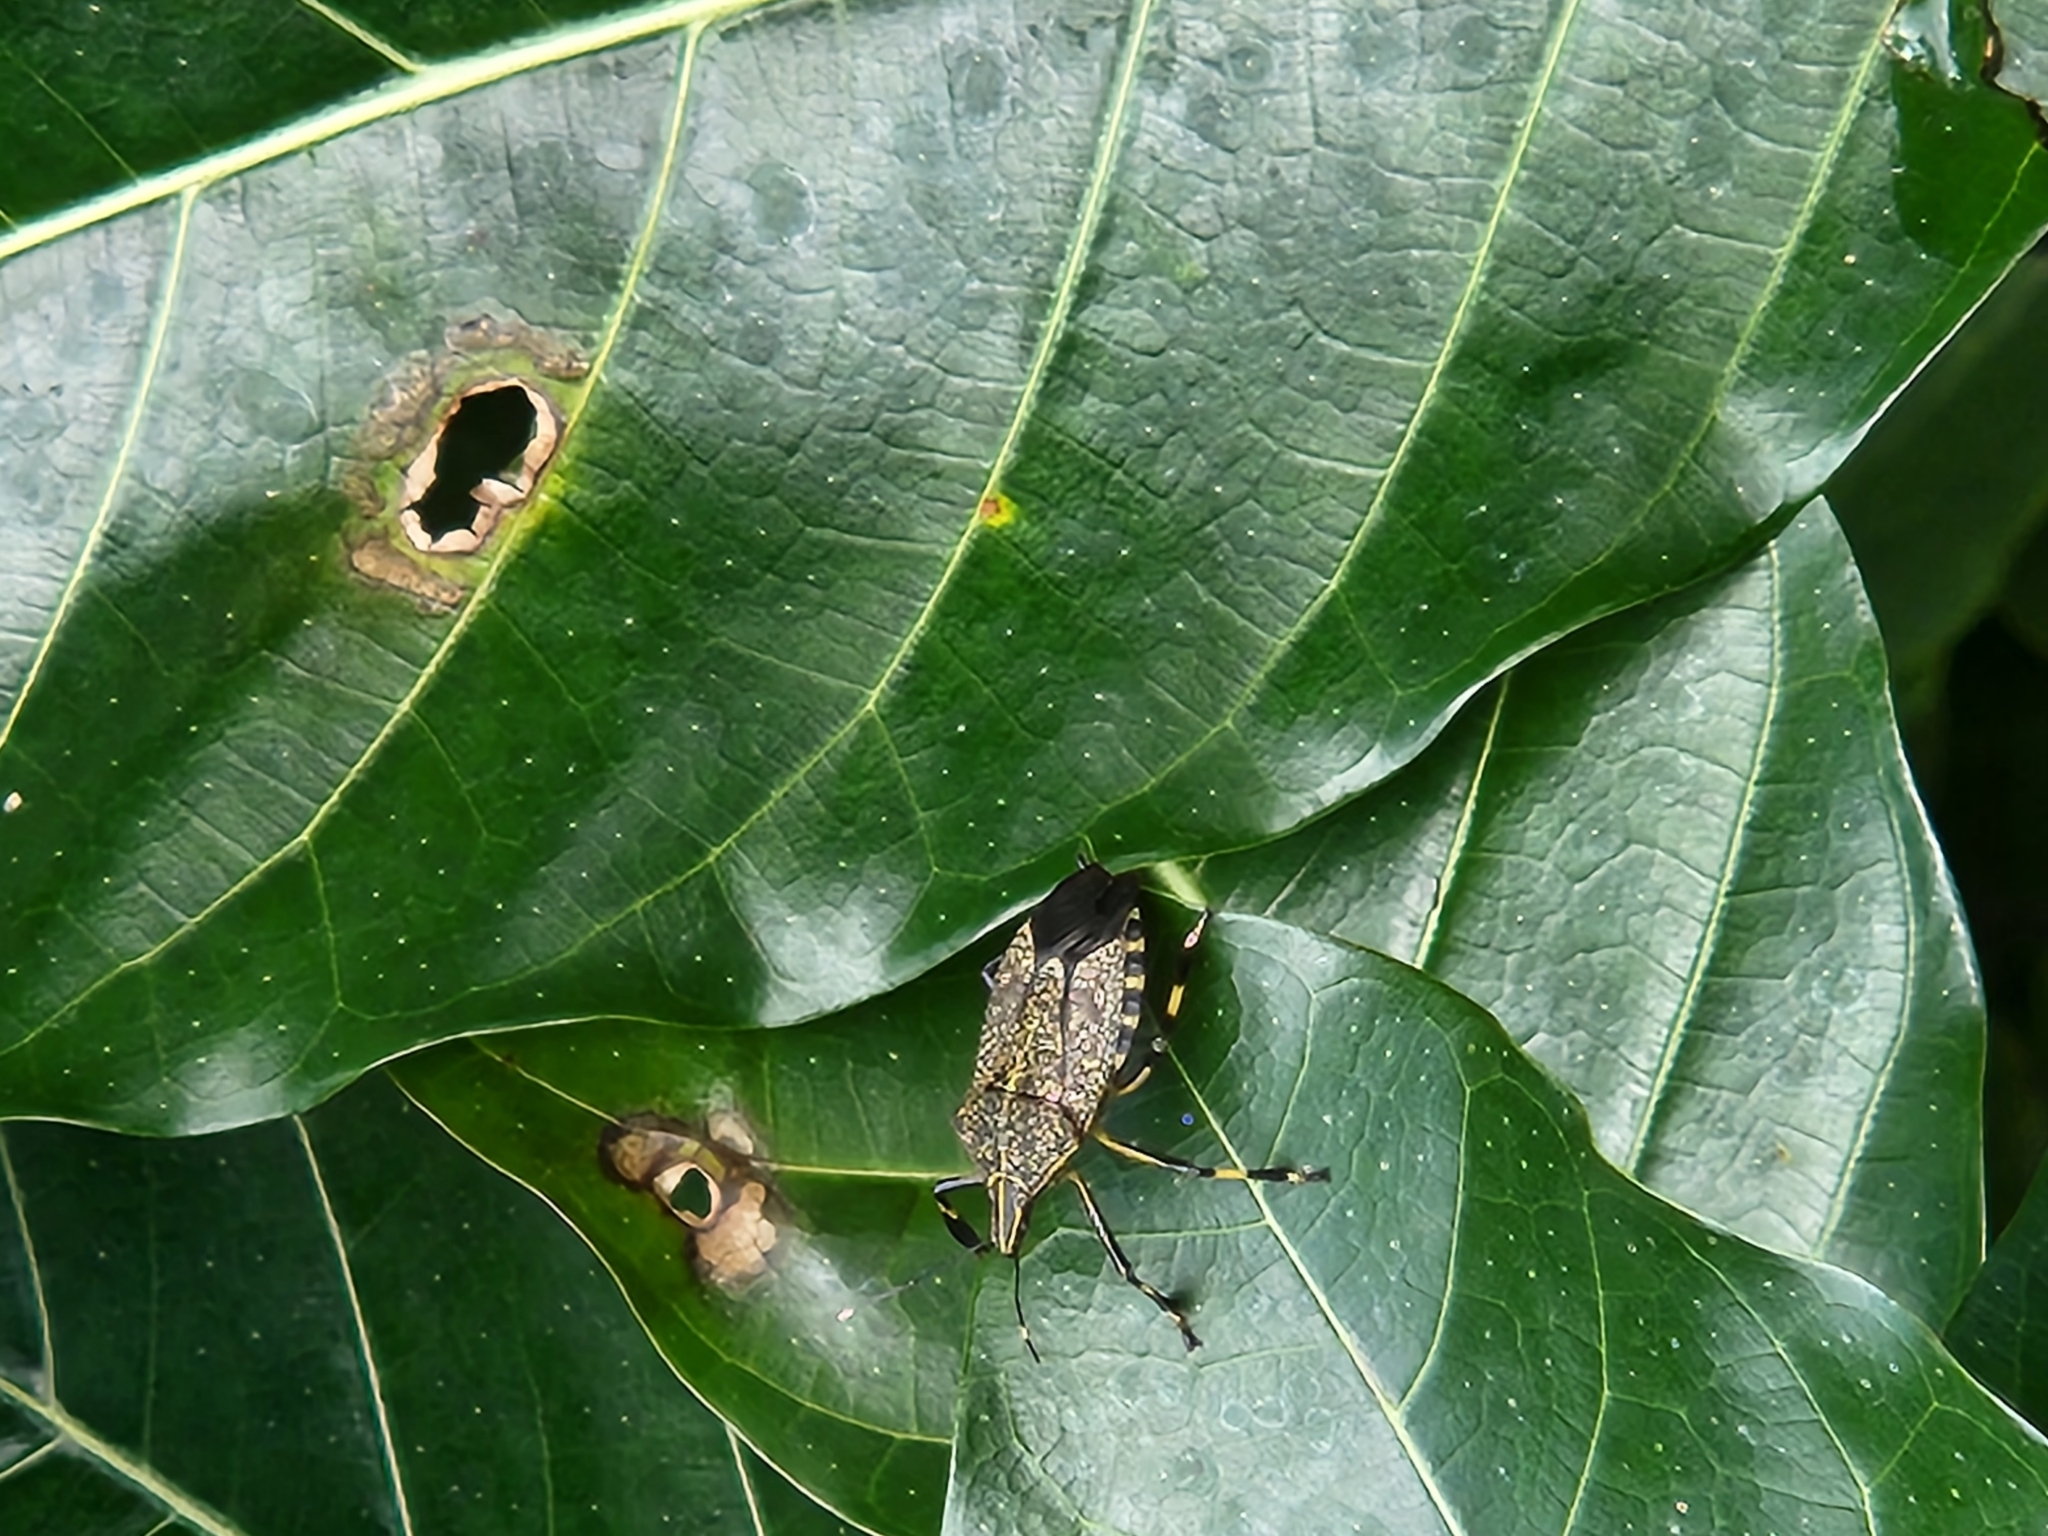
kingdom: Animalia
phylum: Arthropoda
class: Insecta
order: Hemiptera
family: Pentatomidae
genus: Erthesina
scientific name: Erthesina fullo
